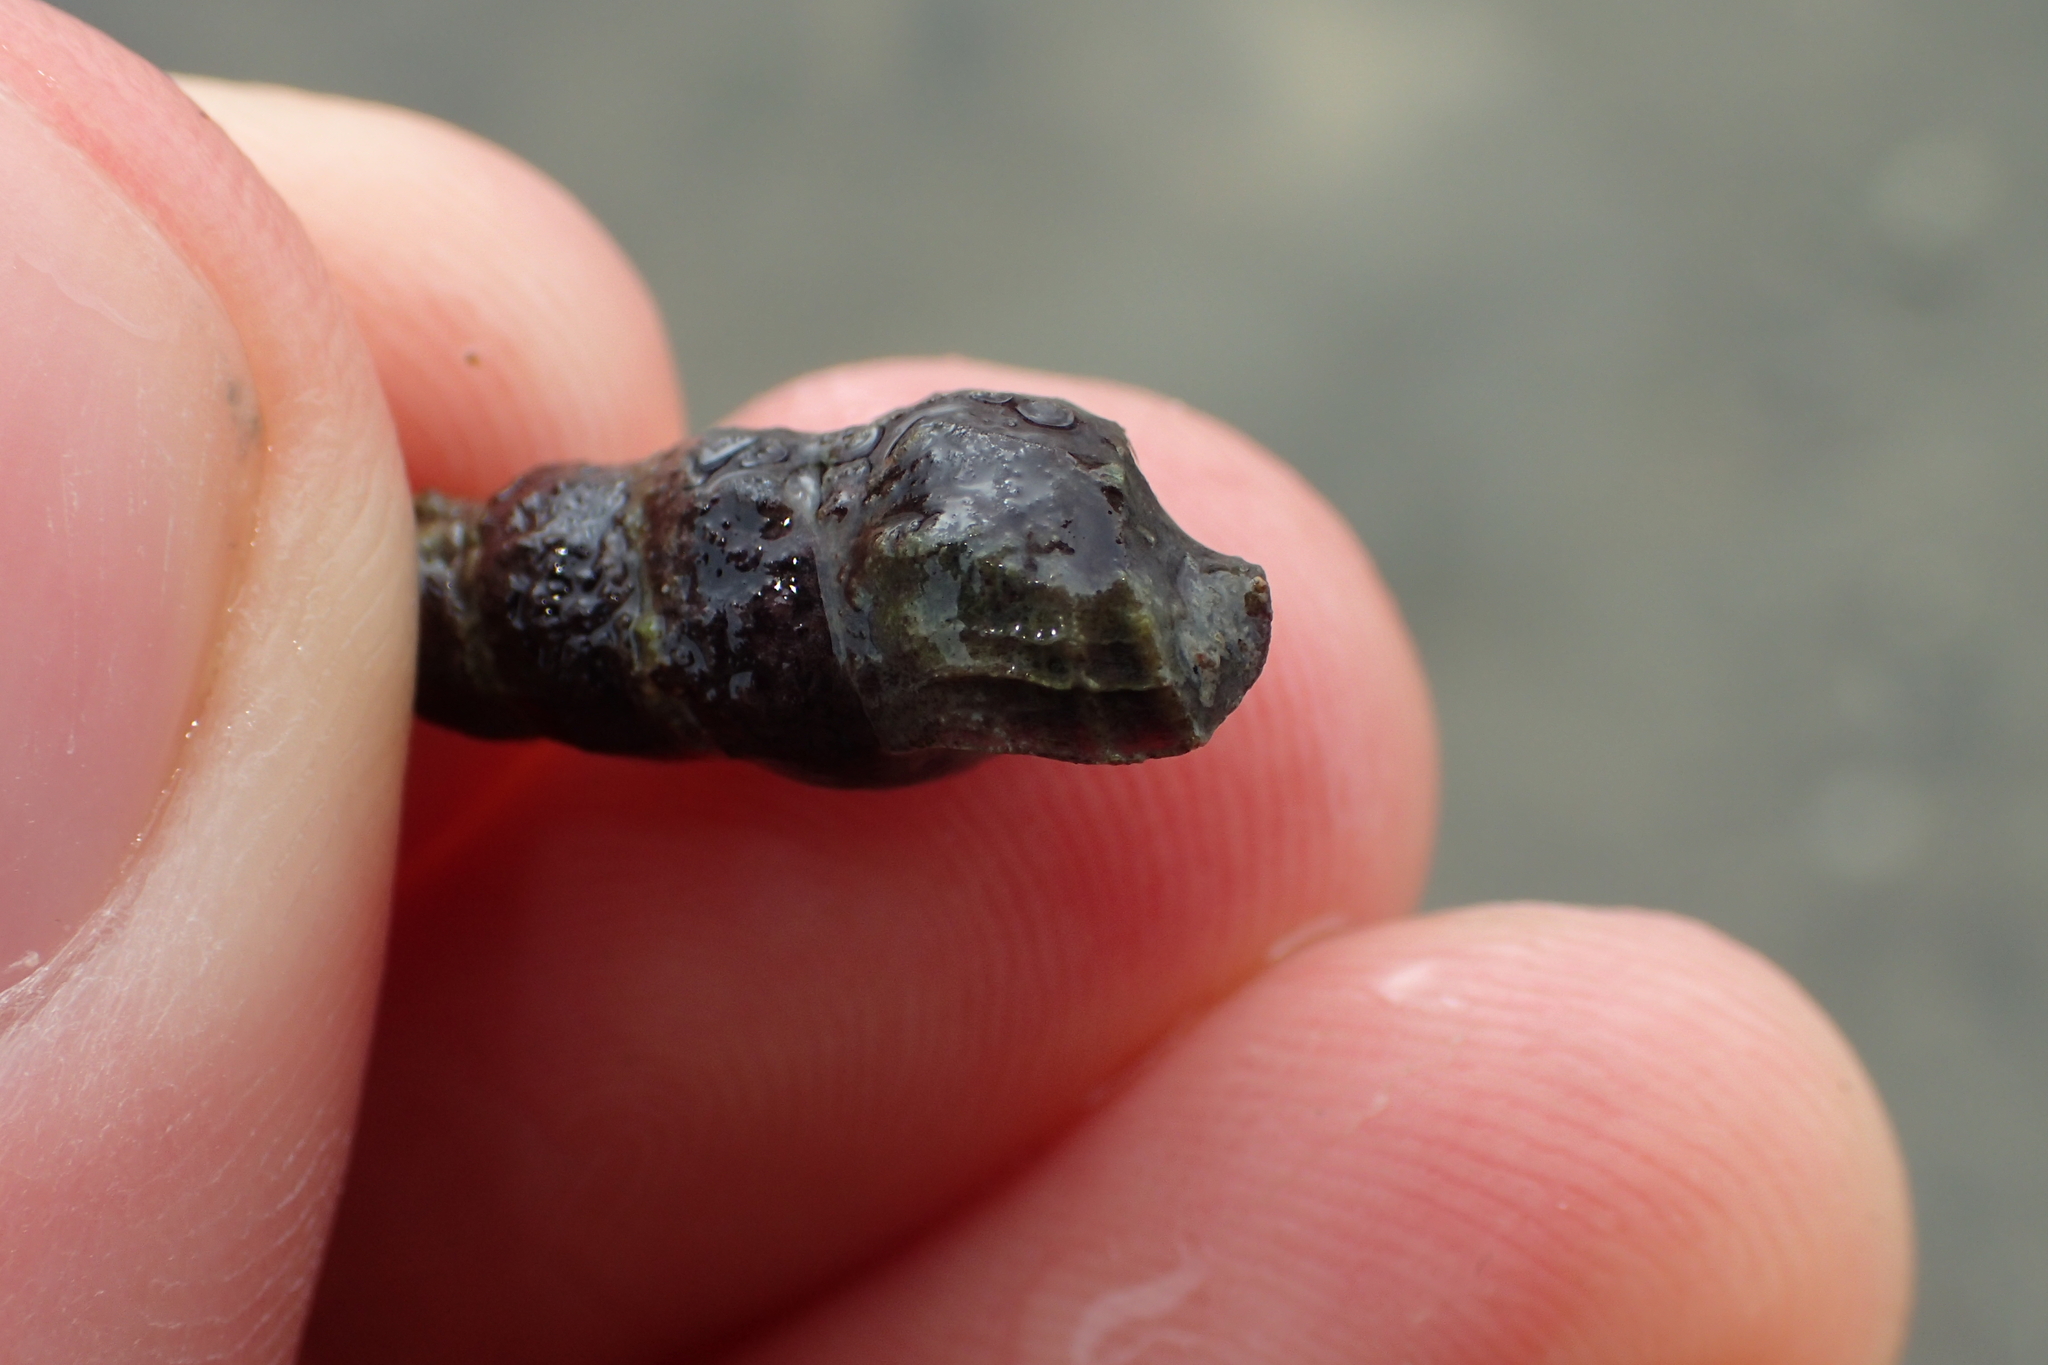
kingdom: Animalia
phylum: Mollusca
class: Gastropoda
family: Batillariidae
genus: Zeacumantus
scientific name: Zeacumantus lutulentus
